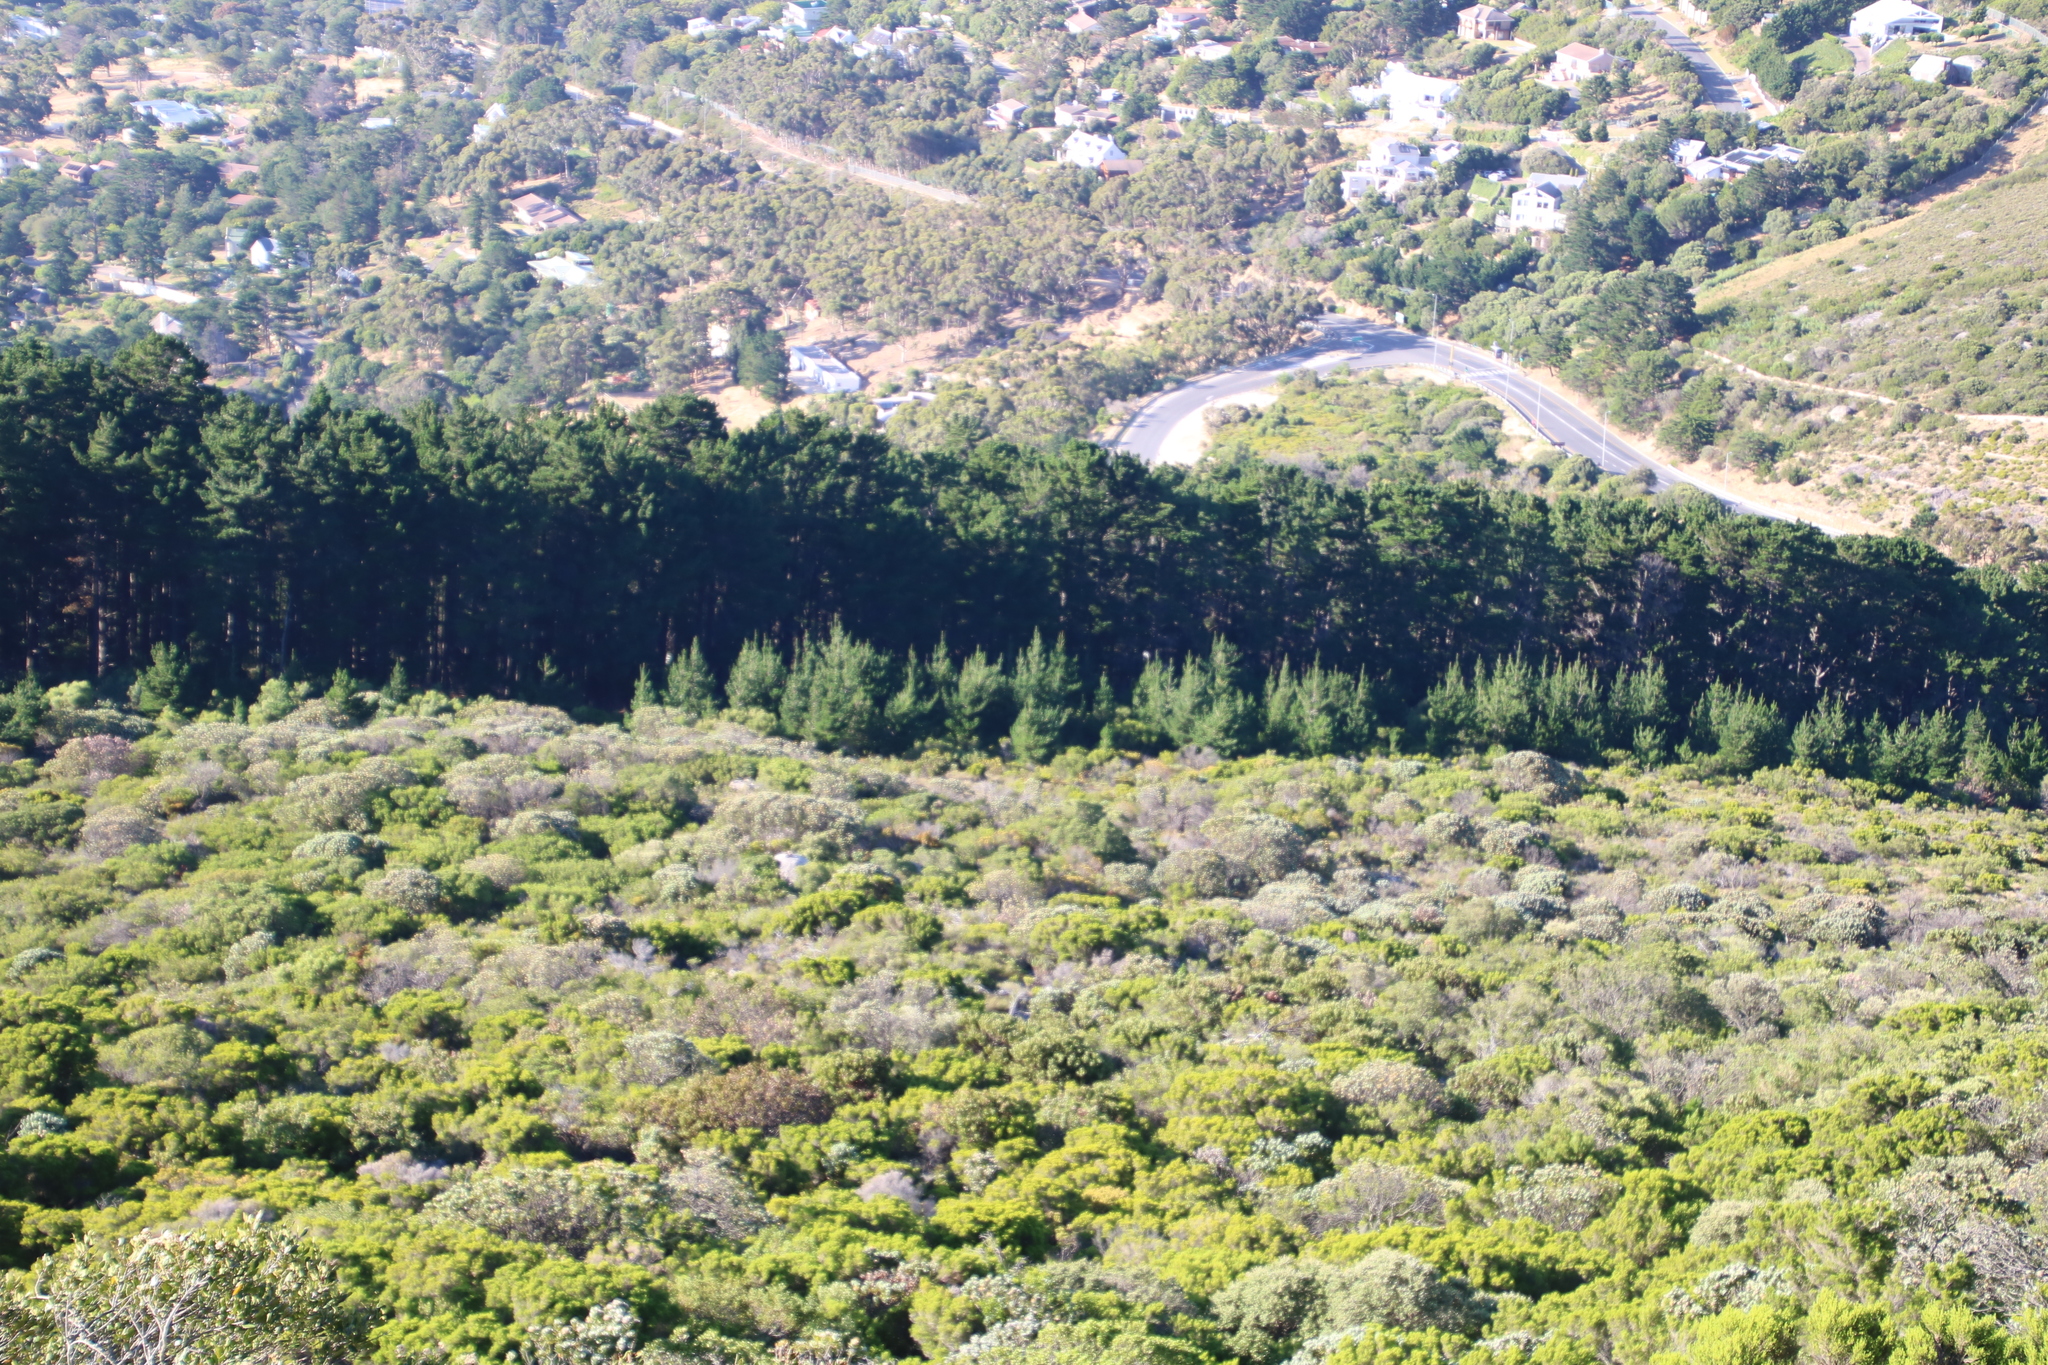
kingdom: Plantae
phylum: Tracheophyta
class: Pinopsida
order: Pinales
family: Pinaceae
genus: Pinus
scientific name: Pinus radiata
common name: Monterey pine
